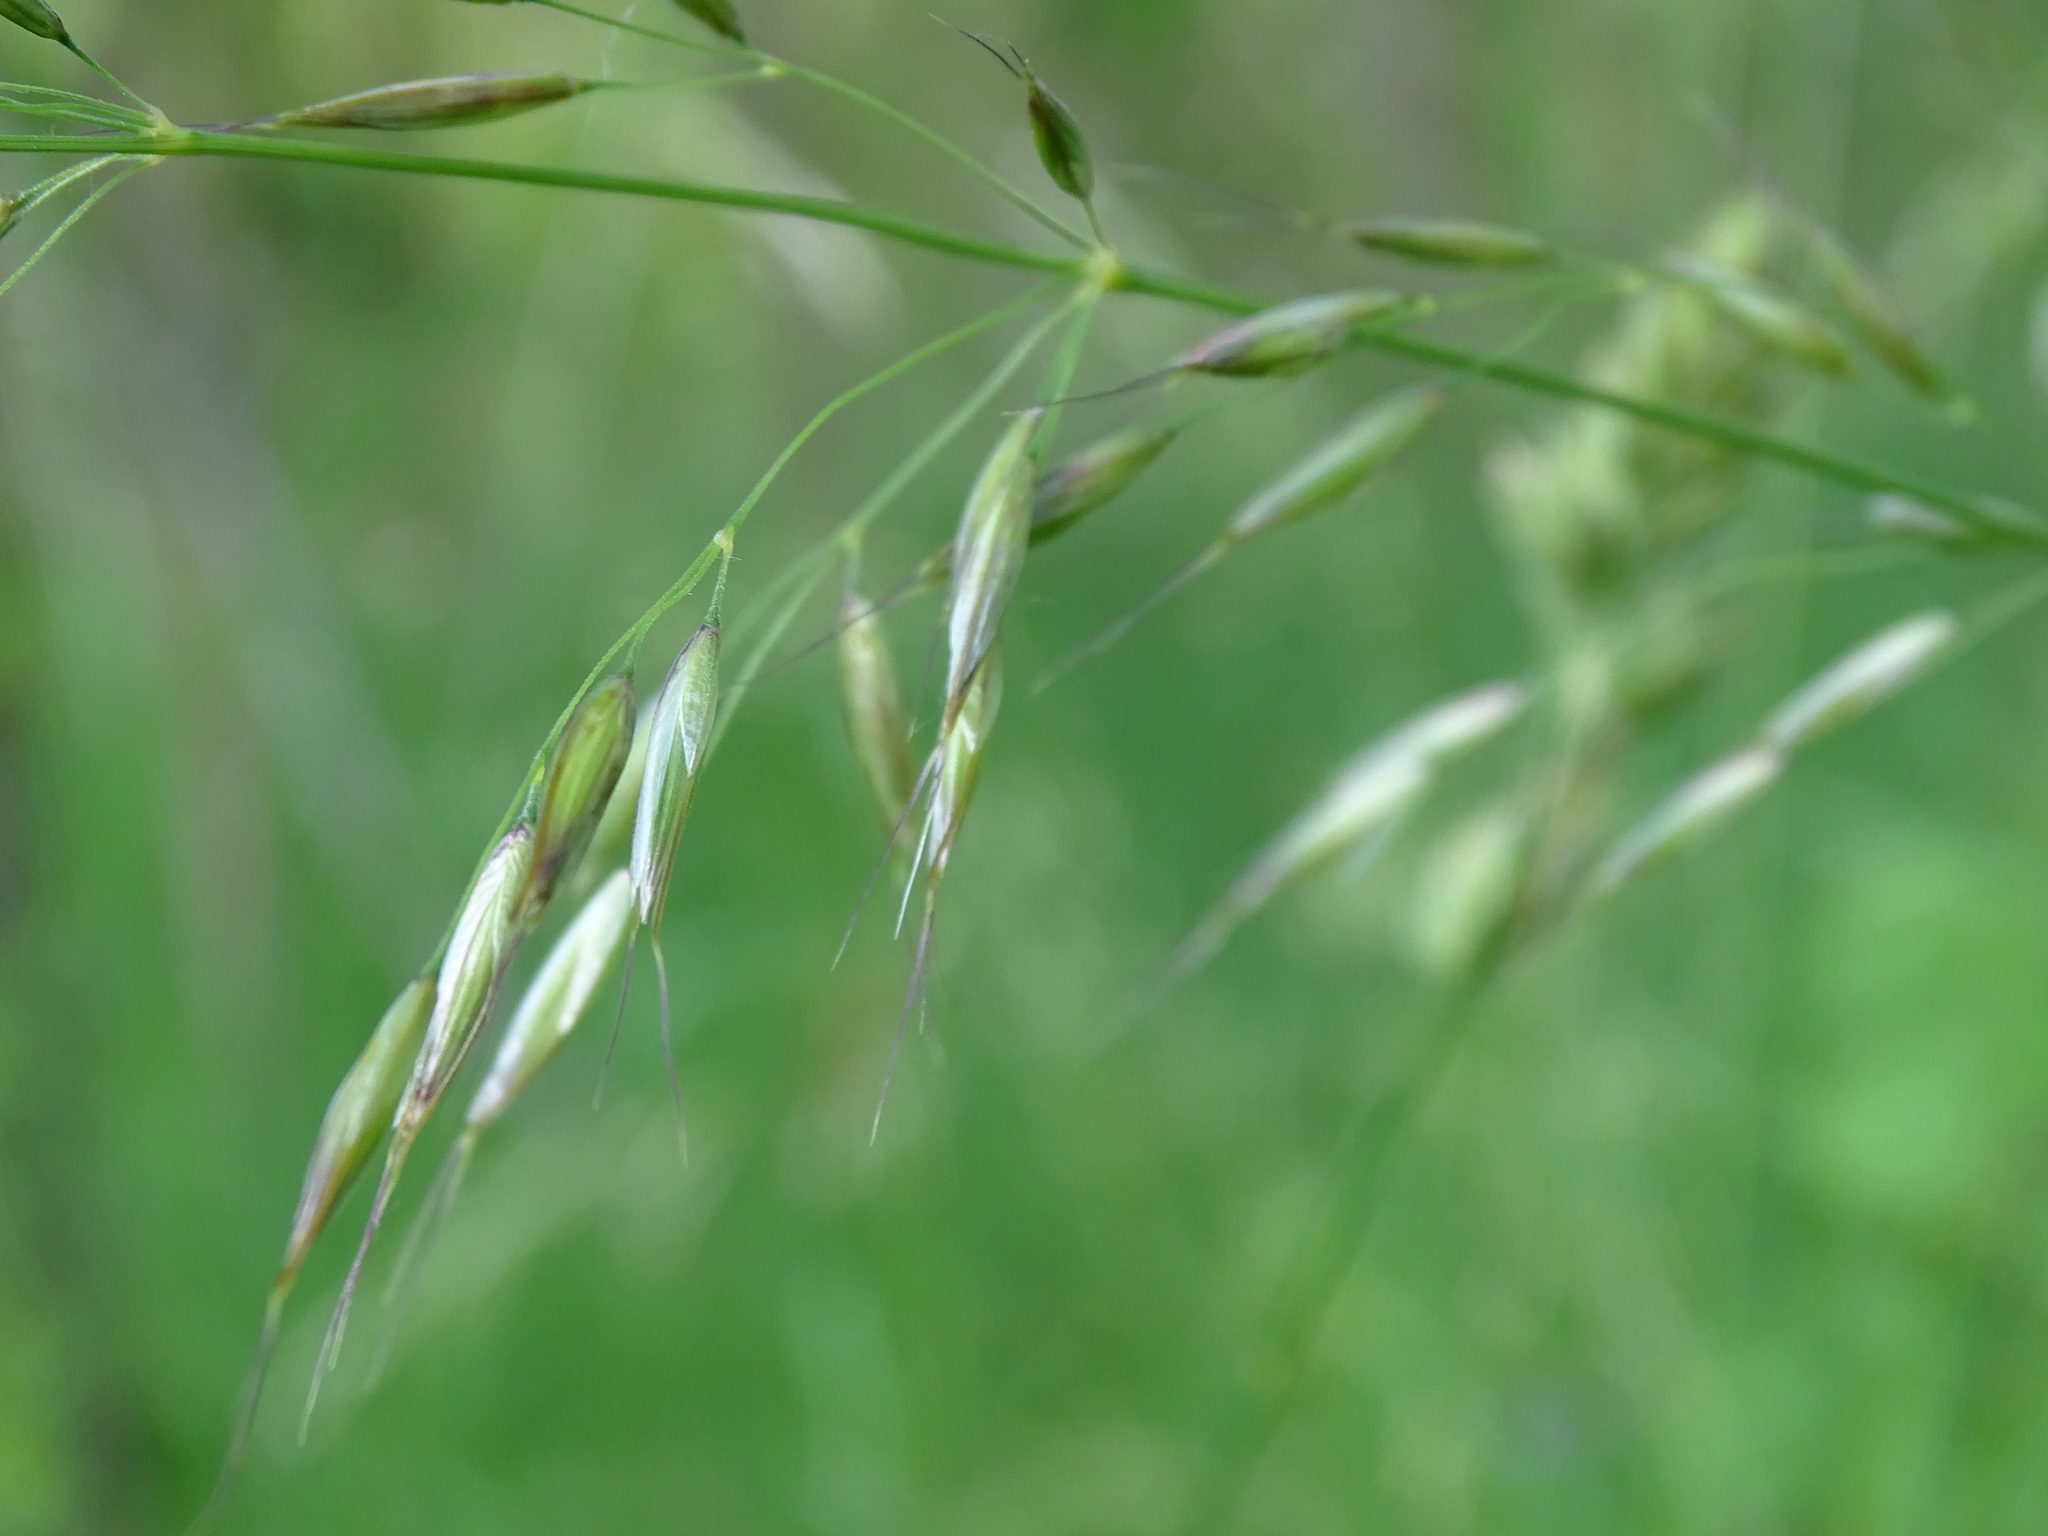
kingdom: Plantae
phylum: Tracheophyta
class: Liliopsida
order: Poales
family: Poaceae
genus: Arrhenatherum
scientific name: Arrhenatherum elatius
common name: Tall oatgrass
